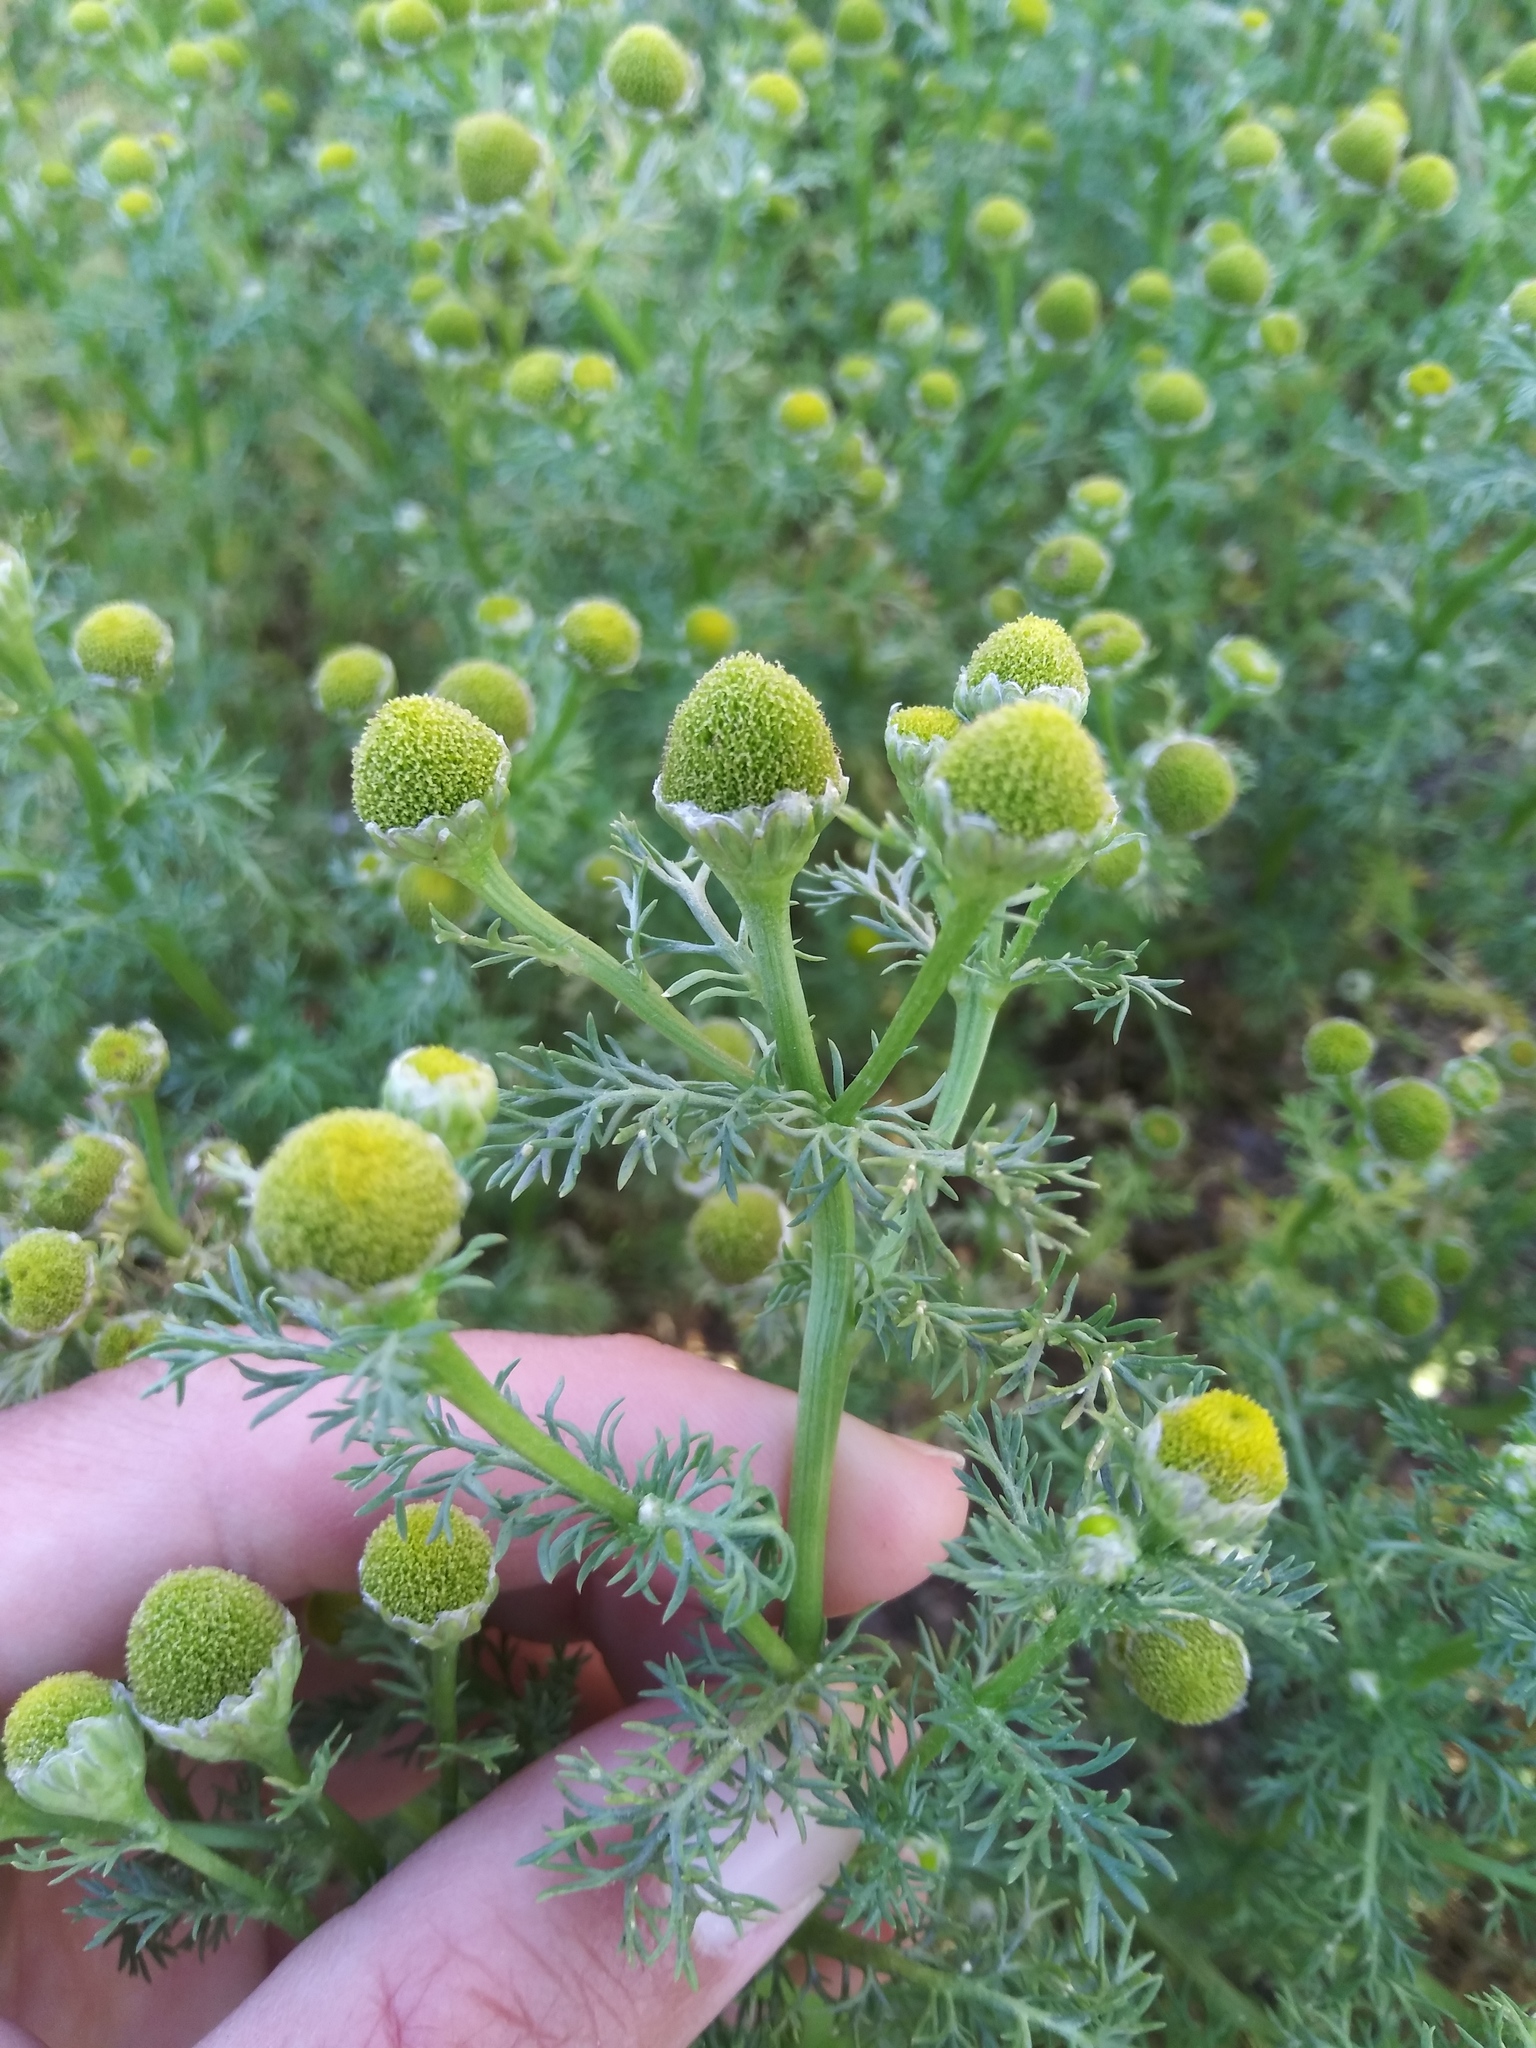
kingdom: Plantae
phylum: Tracheophyta
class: Magnoliopsida
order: Asterales
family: Asteraceae
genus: Matricaria
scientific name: Matricaria discoidea
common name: Disc mayweed
